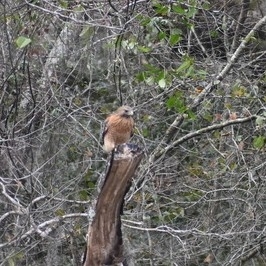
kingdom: Animalia
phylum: Chordata
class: Aves
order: Accipitriformes
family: Accipitridae
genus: Buteo
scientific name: Buteo lineatus
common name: Red-shouldered hawk
